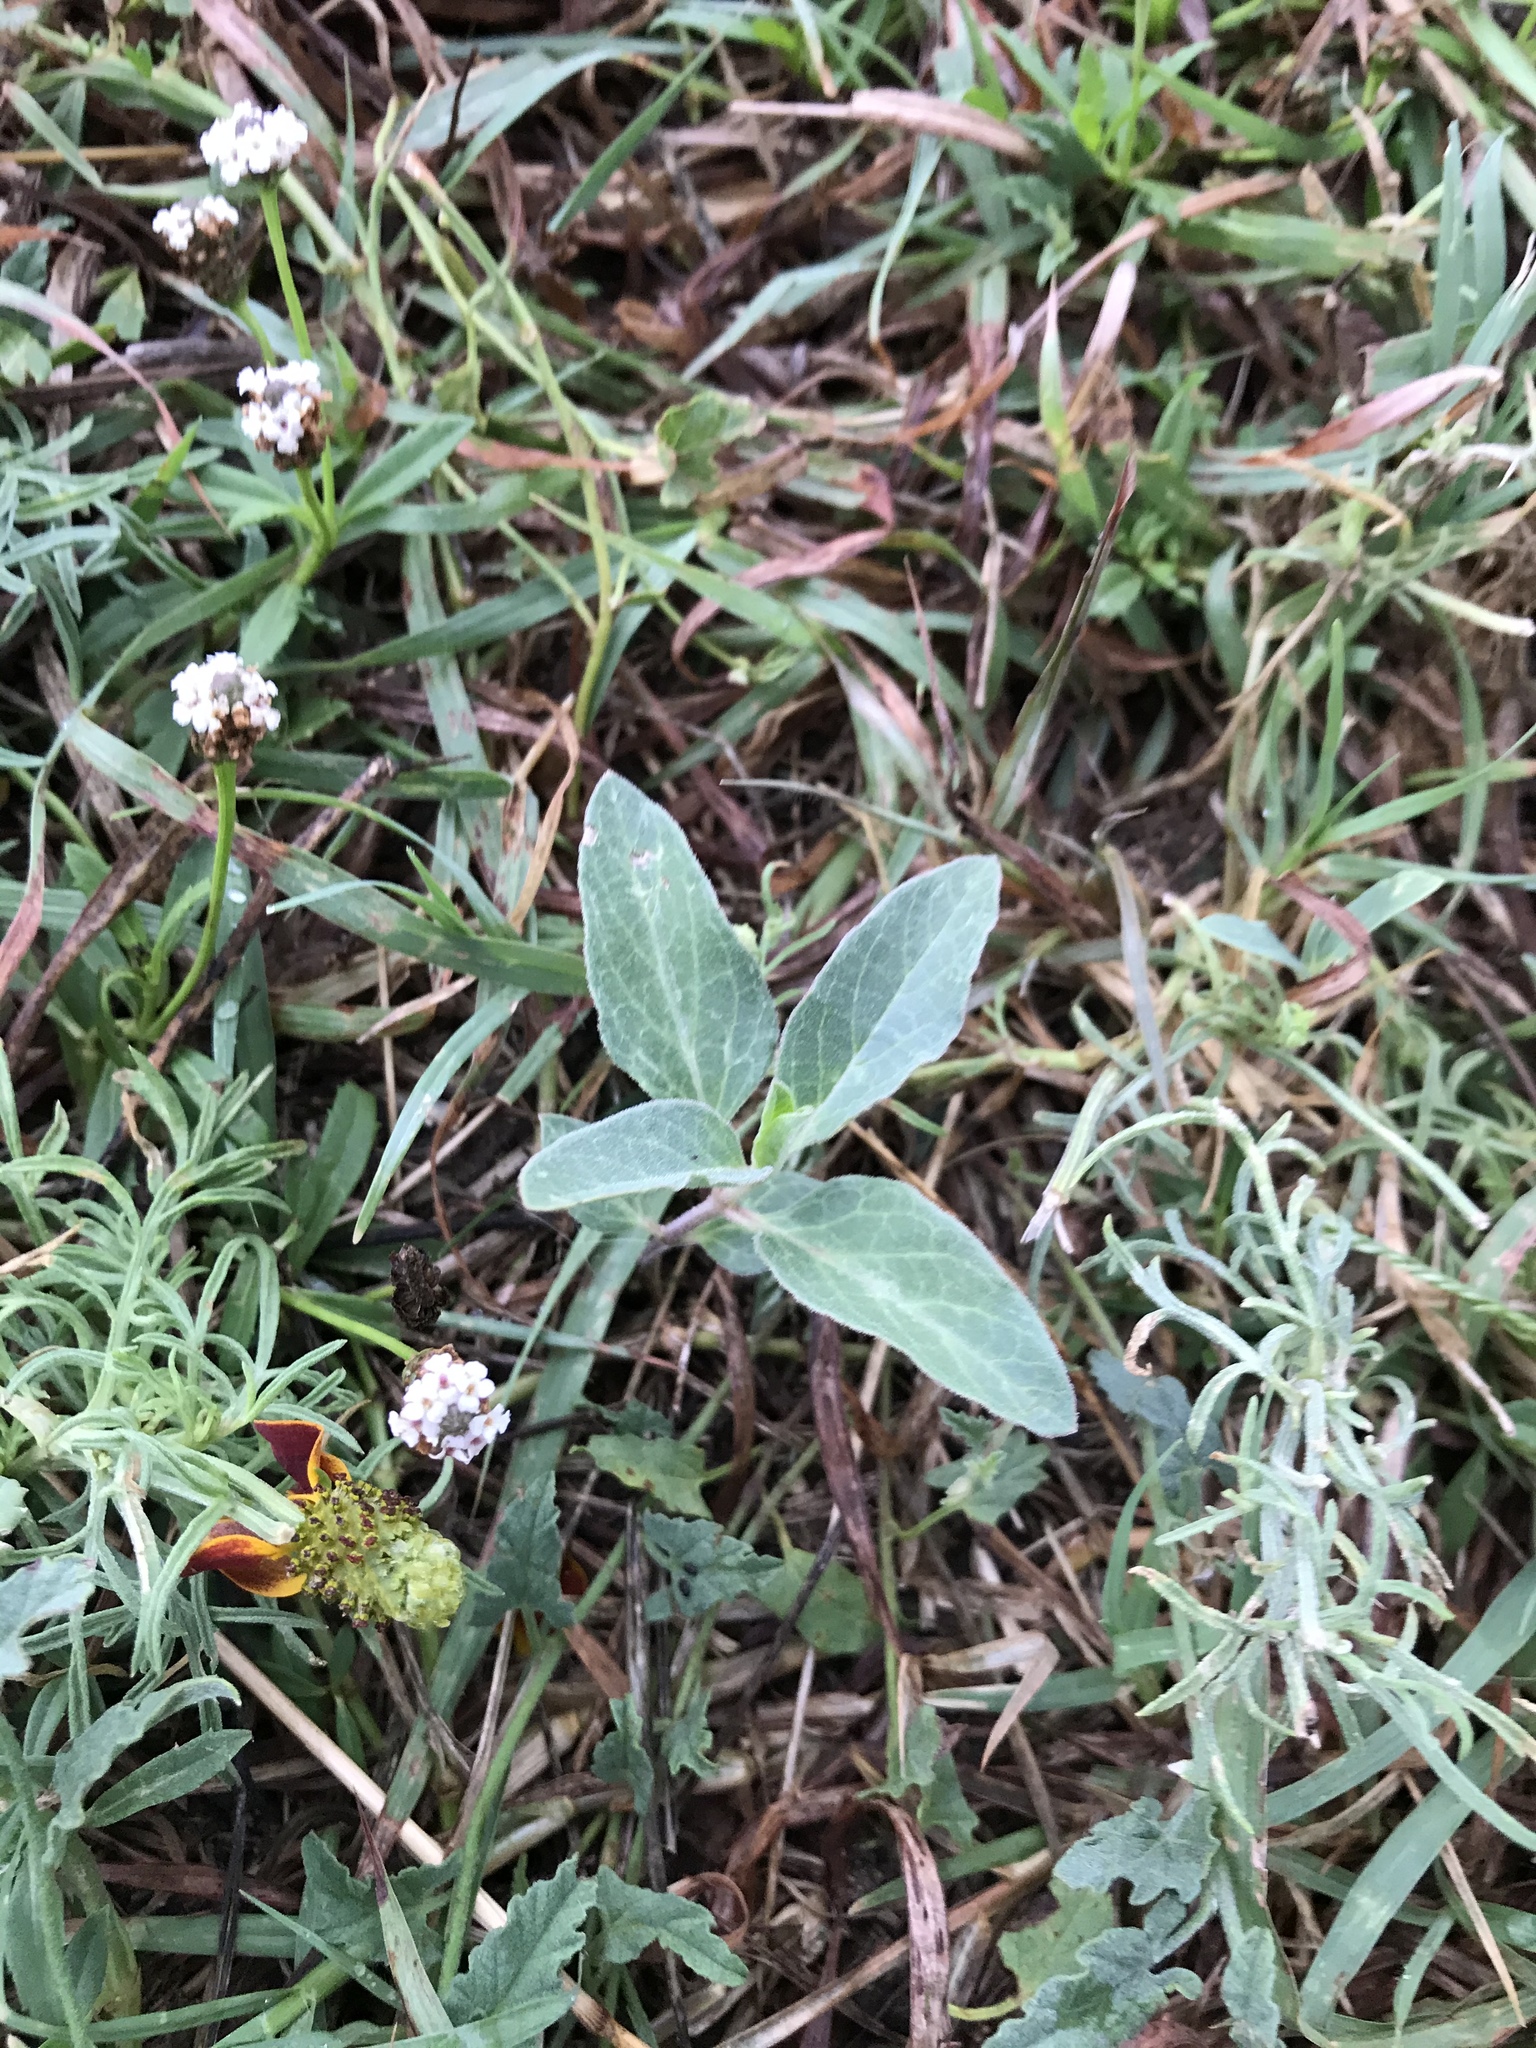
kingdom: Plantae
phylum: Tracheophyta
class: Magnoliopsida
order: Gentianales
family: Apocynaceae
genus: Asclepias
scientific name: Asclepias oenotheroides
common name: Zizotes milkweed
